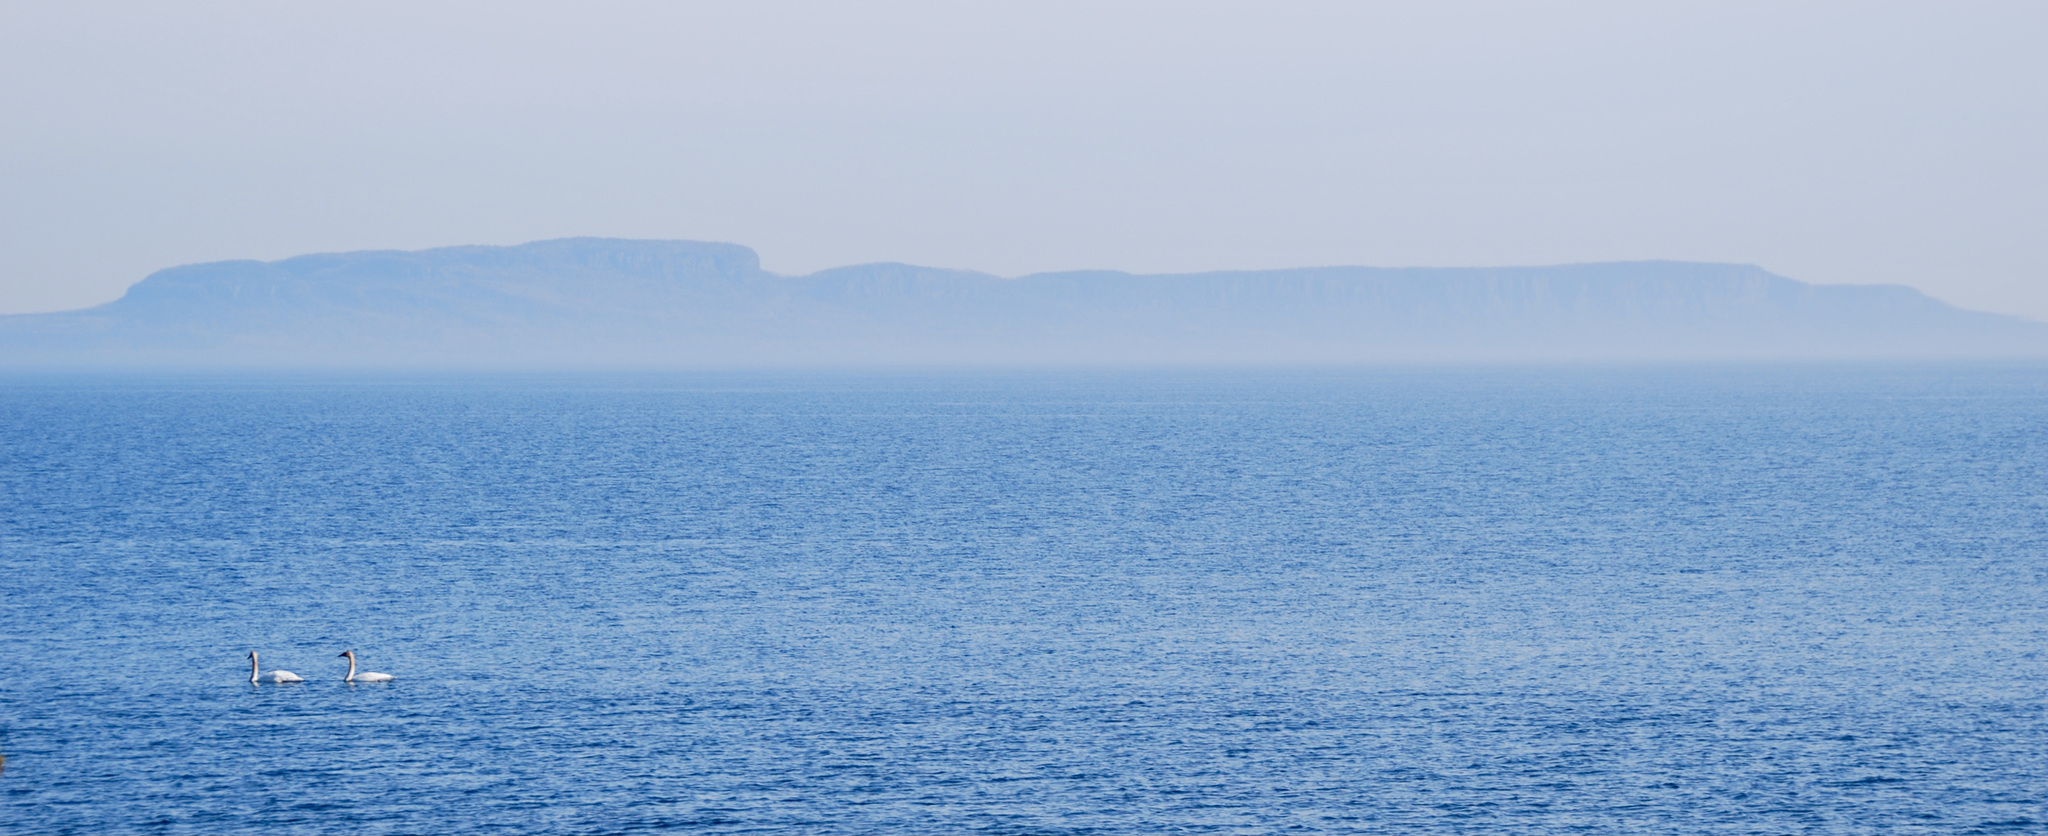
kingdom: Animalia
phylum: Chordata
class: Aves
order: Anseriformes
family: Anatidae
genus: Cygnus
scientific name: Cygnus buccinator
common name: Trumpeter swan
